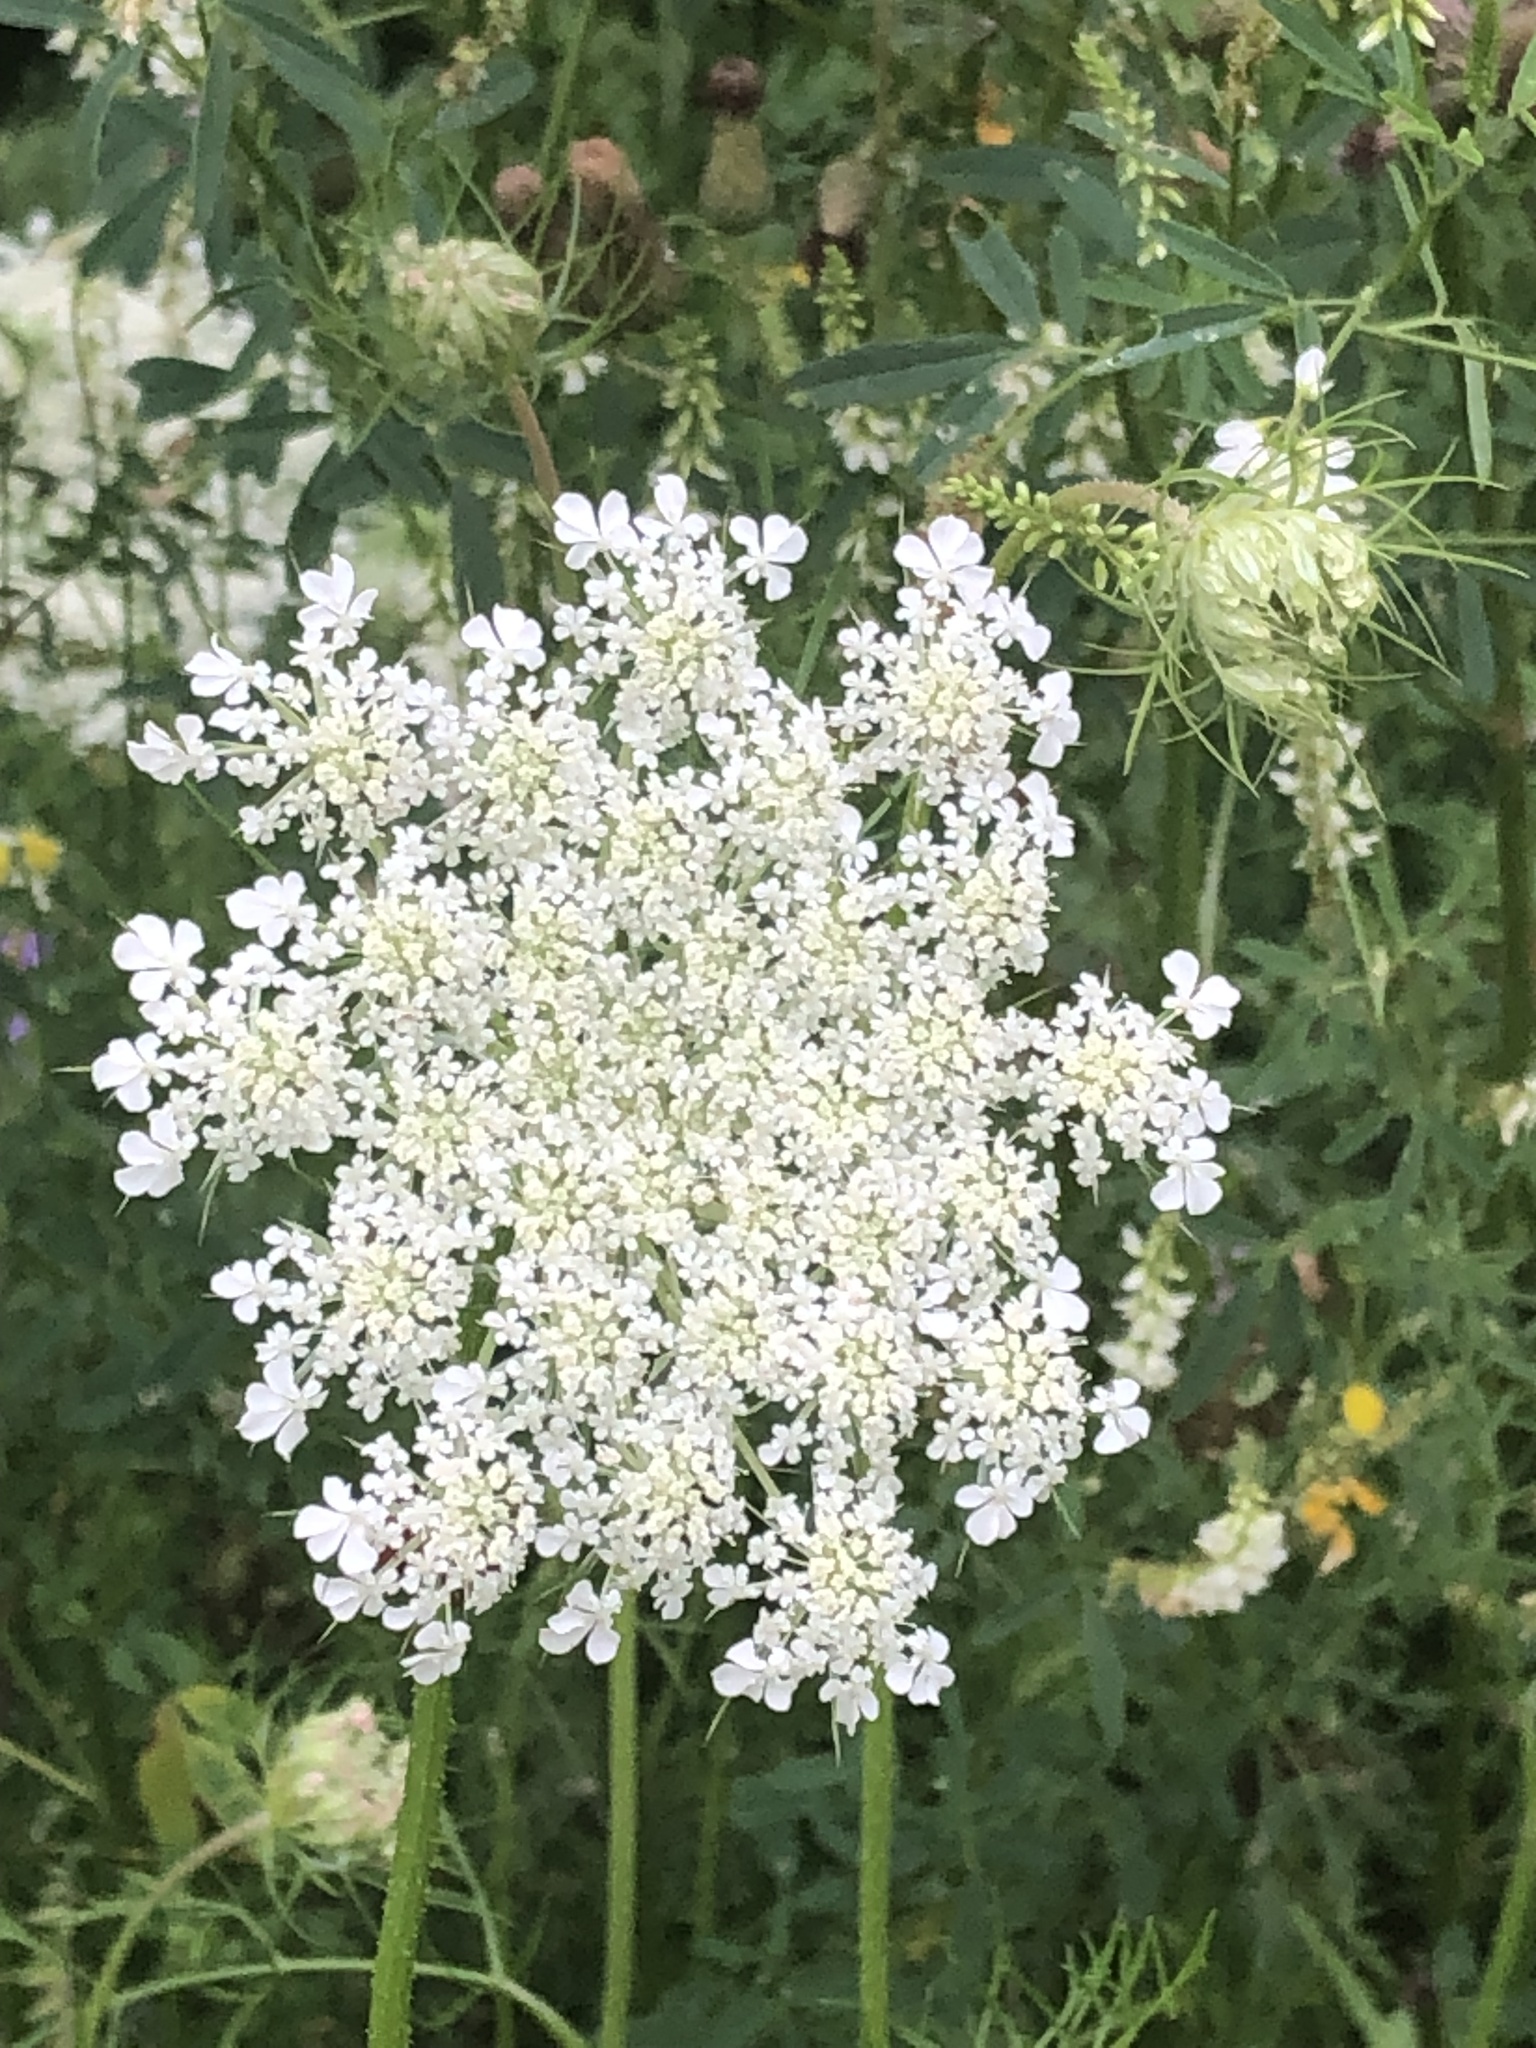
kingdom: Plantae
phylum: Tracheophyta
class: Magnoliopsida
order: Apiales
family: Apiaceae
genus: Daucus
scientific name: Daucus carota
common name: Wild carrot
